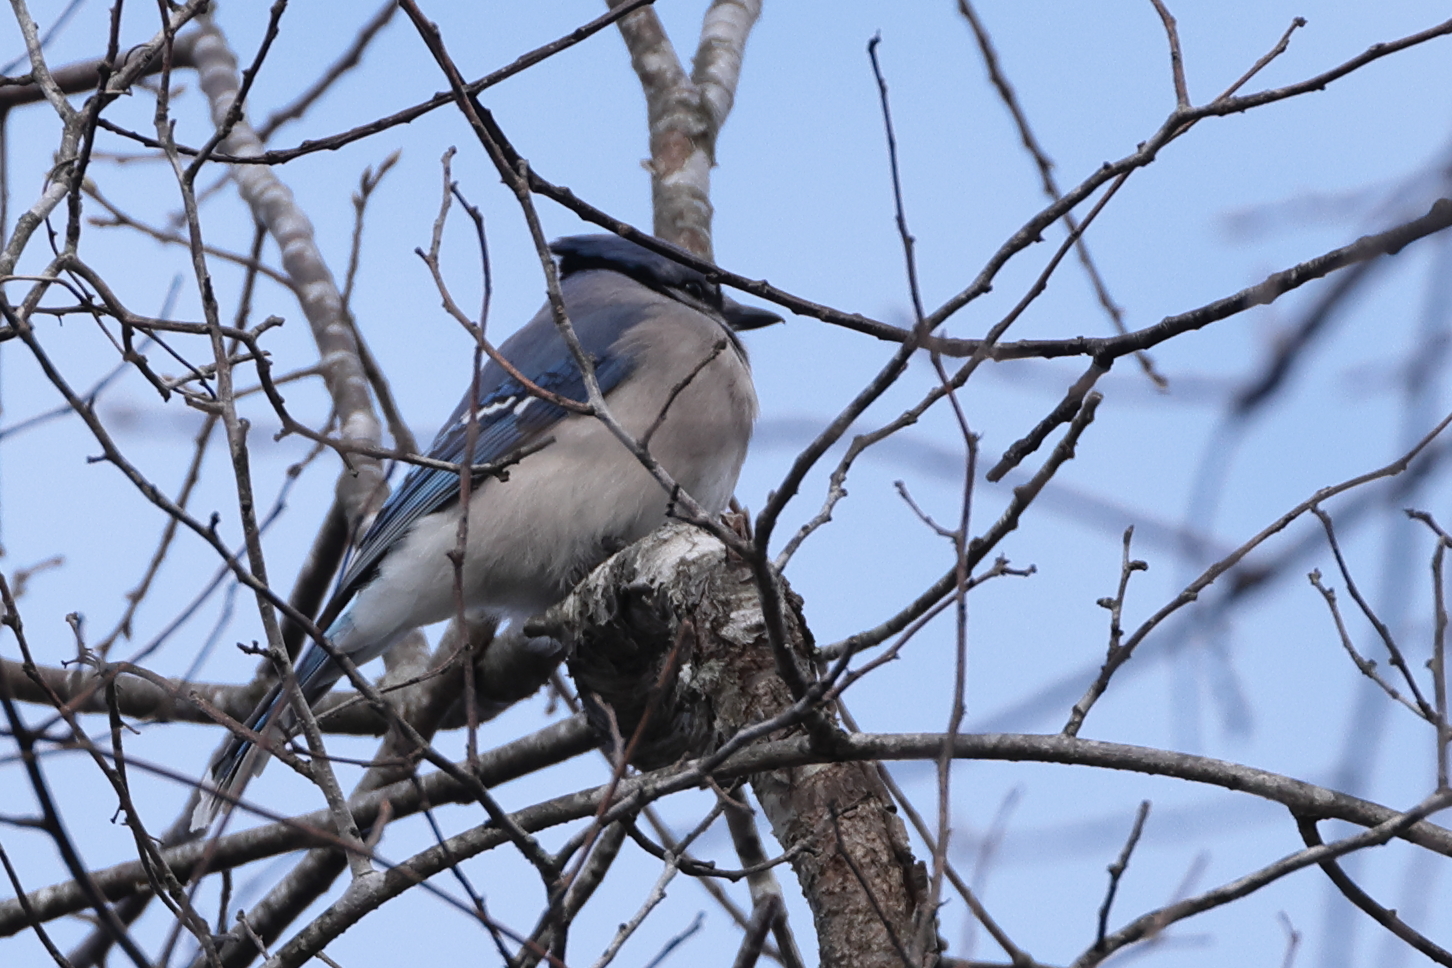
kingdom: Animalia
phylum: Chordata
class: Aves
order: Passeriformes
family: Corvidae
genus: Cyanocitta
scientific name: Cyanocitta cristata
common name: Blue jay
